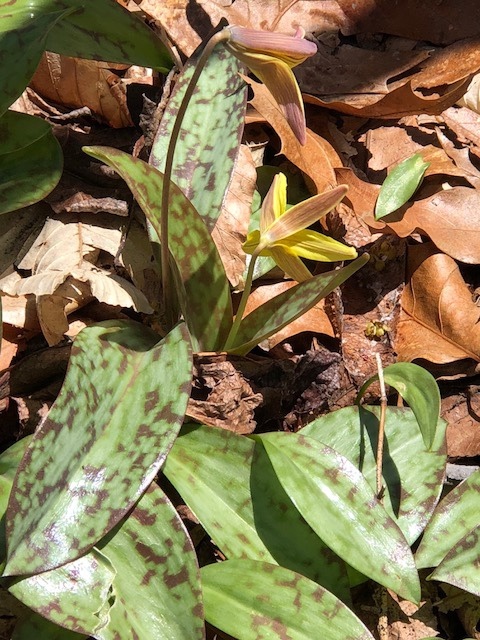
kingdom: Plantae
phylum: Tracheophyta
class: Liliopsida
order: Liliales
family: Liliaceae
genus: Erythronium
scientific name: Erythronium americanum
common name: Yellow adder's-tongue
